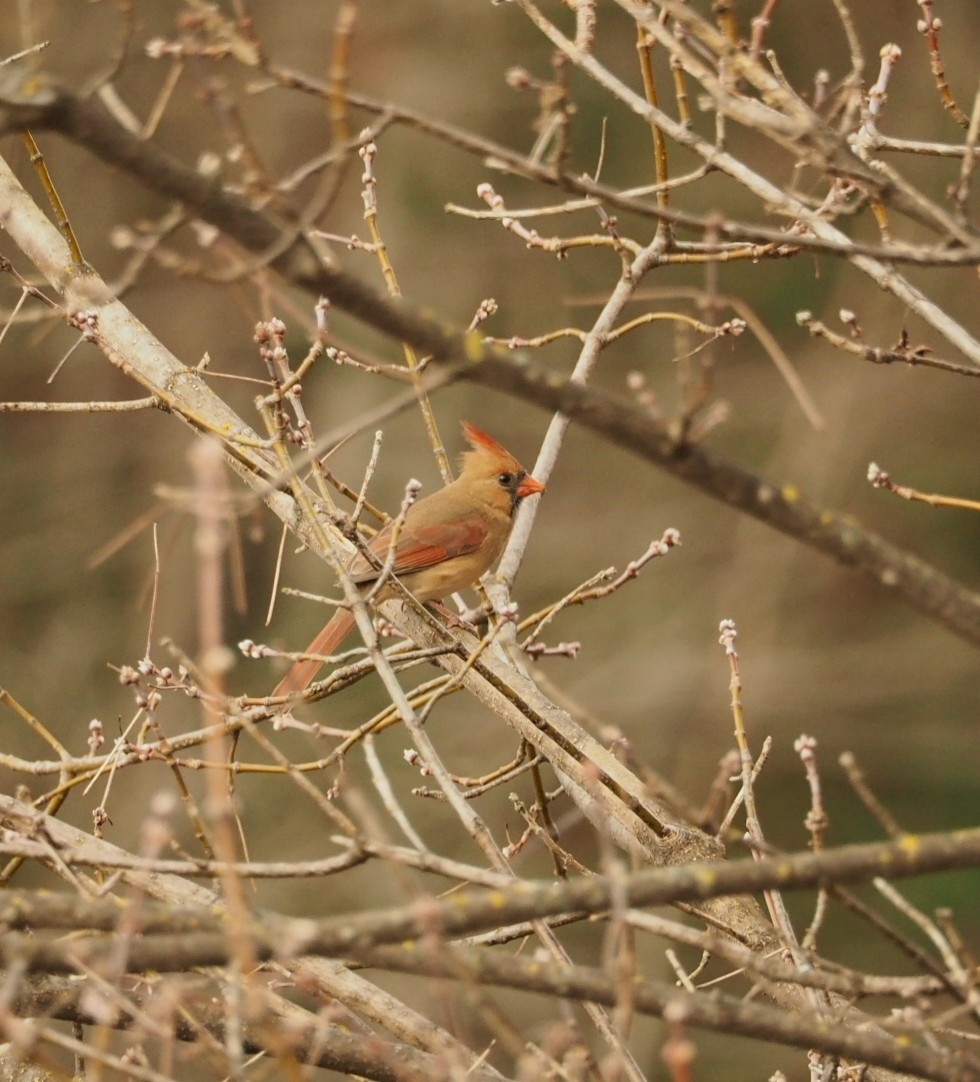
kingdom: Animalia
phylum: Chordata
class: Aves
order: Passeriformes
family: Cardinalidae
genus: Cardinalis
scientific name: Cardinalis cardinalis
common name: Northern cardinal
